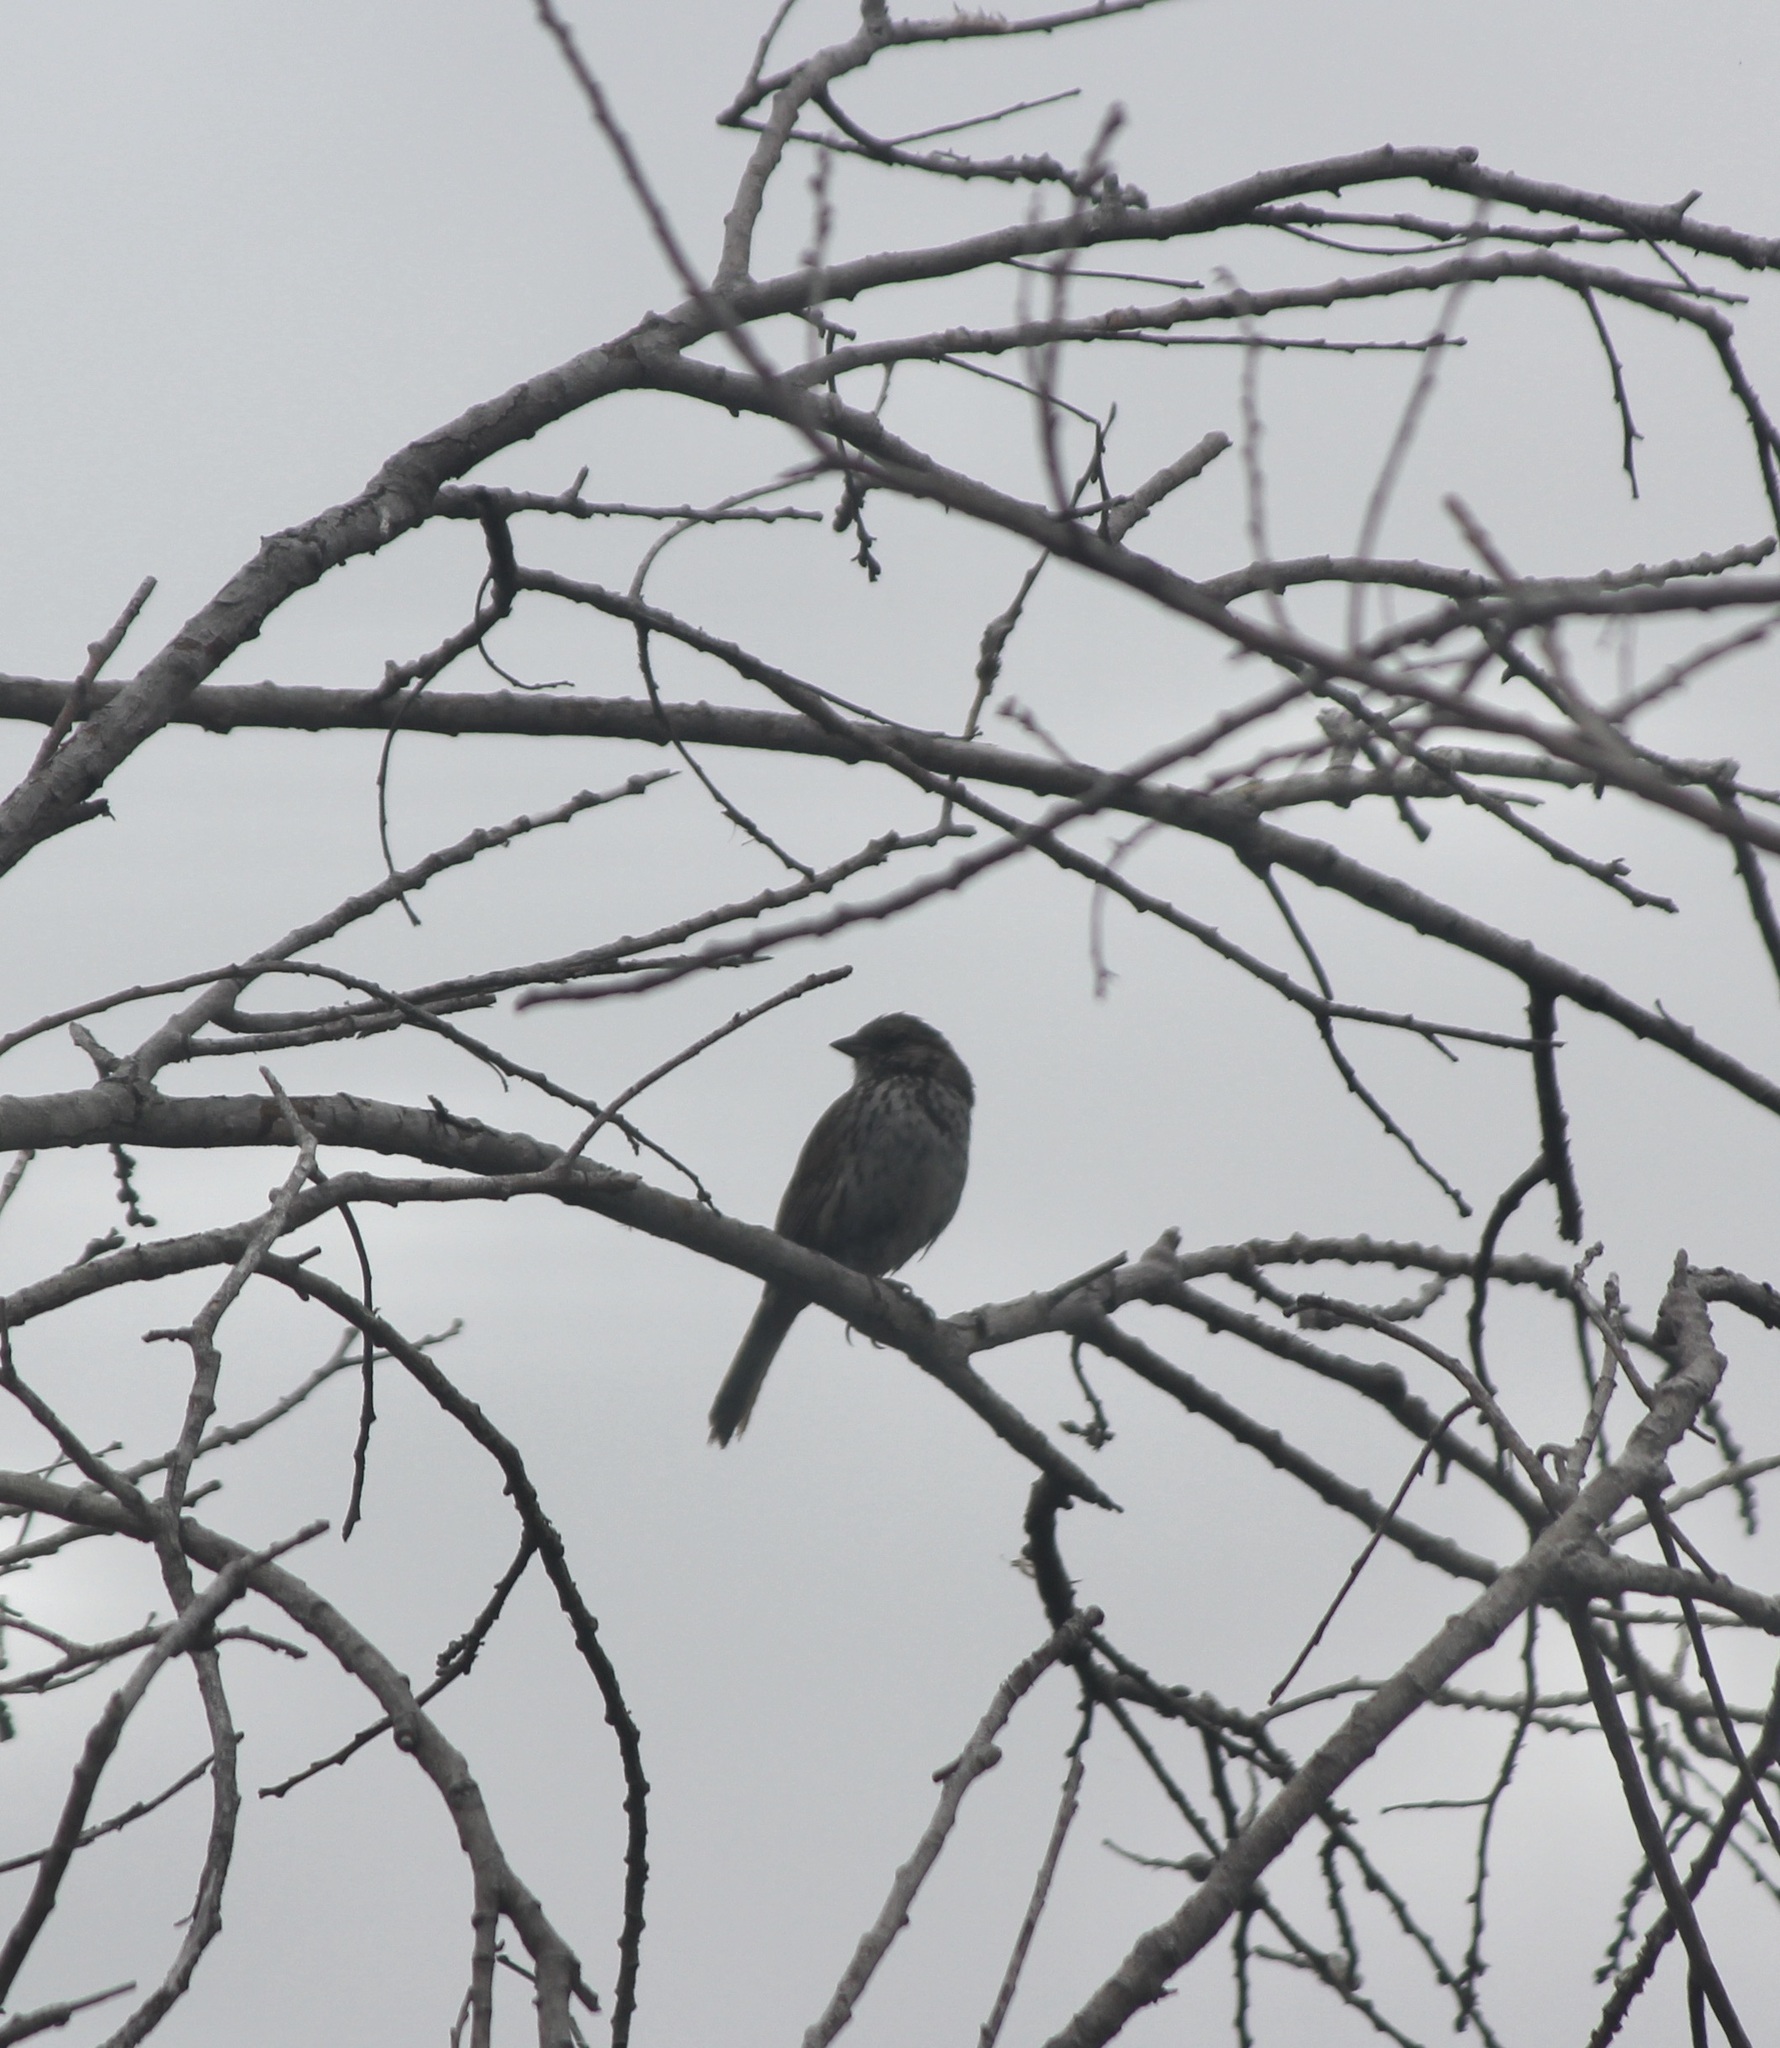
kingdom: Animalia
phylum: Chordata
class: Aves
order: Passeriformes
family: Passerellidae
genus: Melospiza
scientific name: Melospiza melodia
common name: Song sparrow
